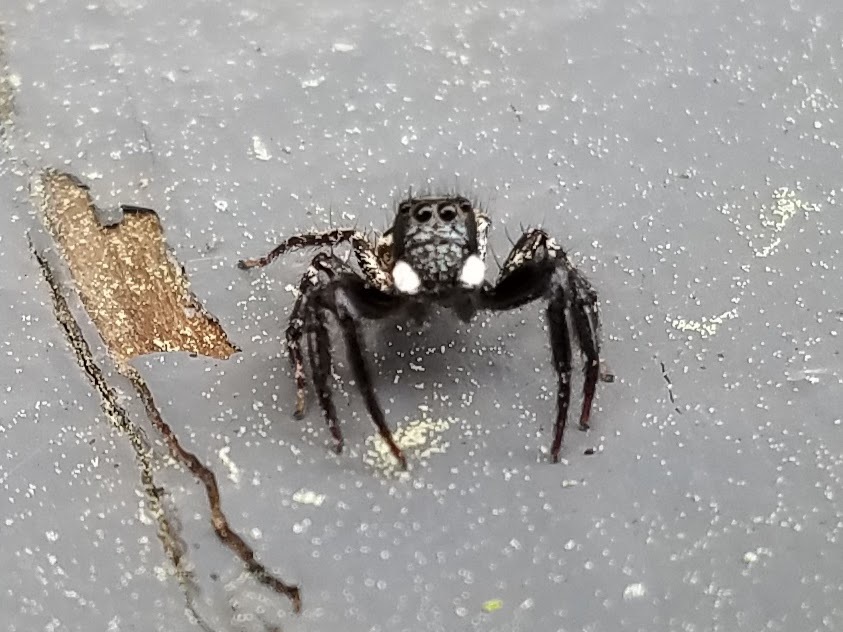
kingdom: Animalia
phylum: Arthropoda
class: Arachnida
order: Araneae
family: Salticidae
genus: Anasaitis
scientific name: Anasaitis canosa
